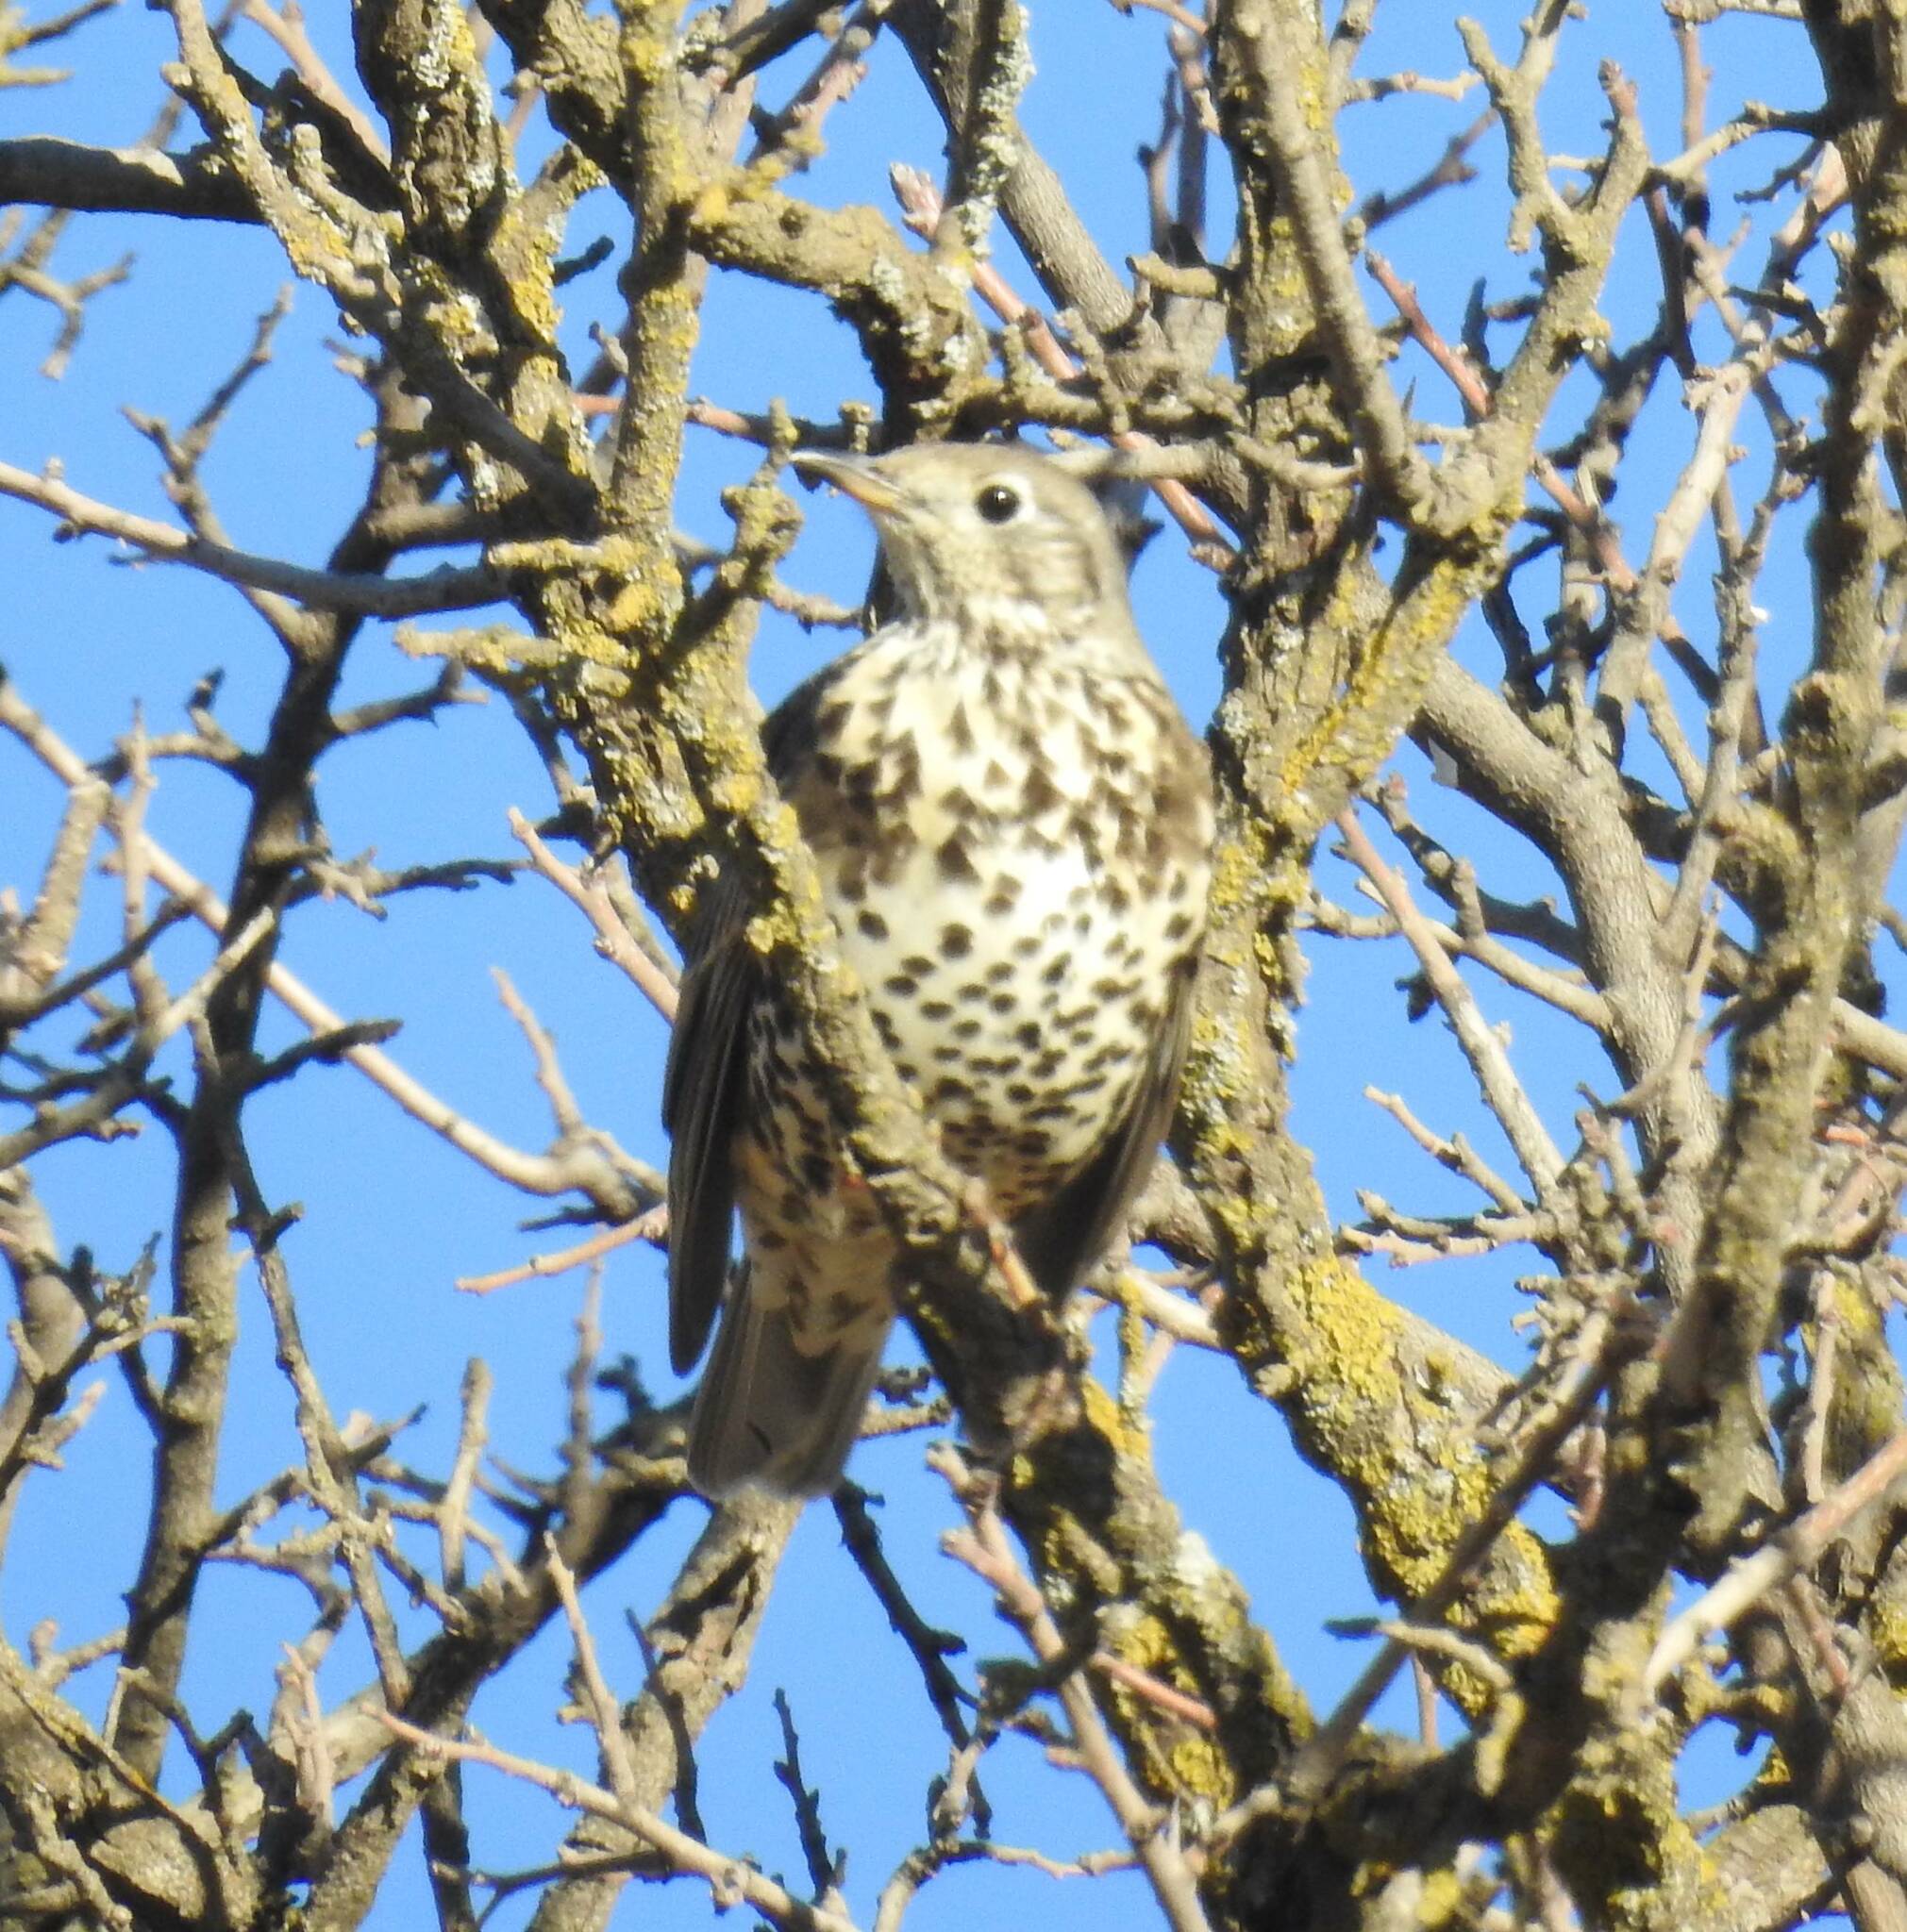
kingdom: Animalia
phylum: Chordata
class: Aves
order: Passeriformes
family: Turdidae
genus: Turdus
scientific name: Turdus viscivorus
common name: Mistle thrush
